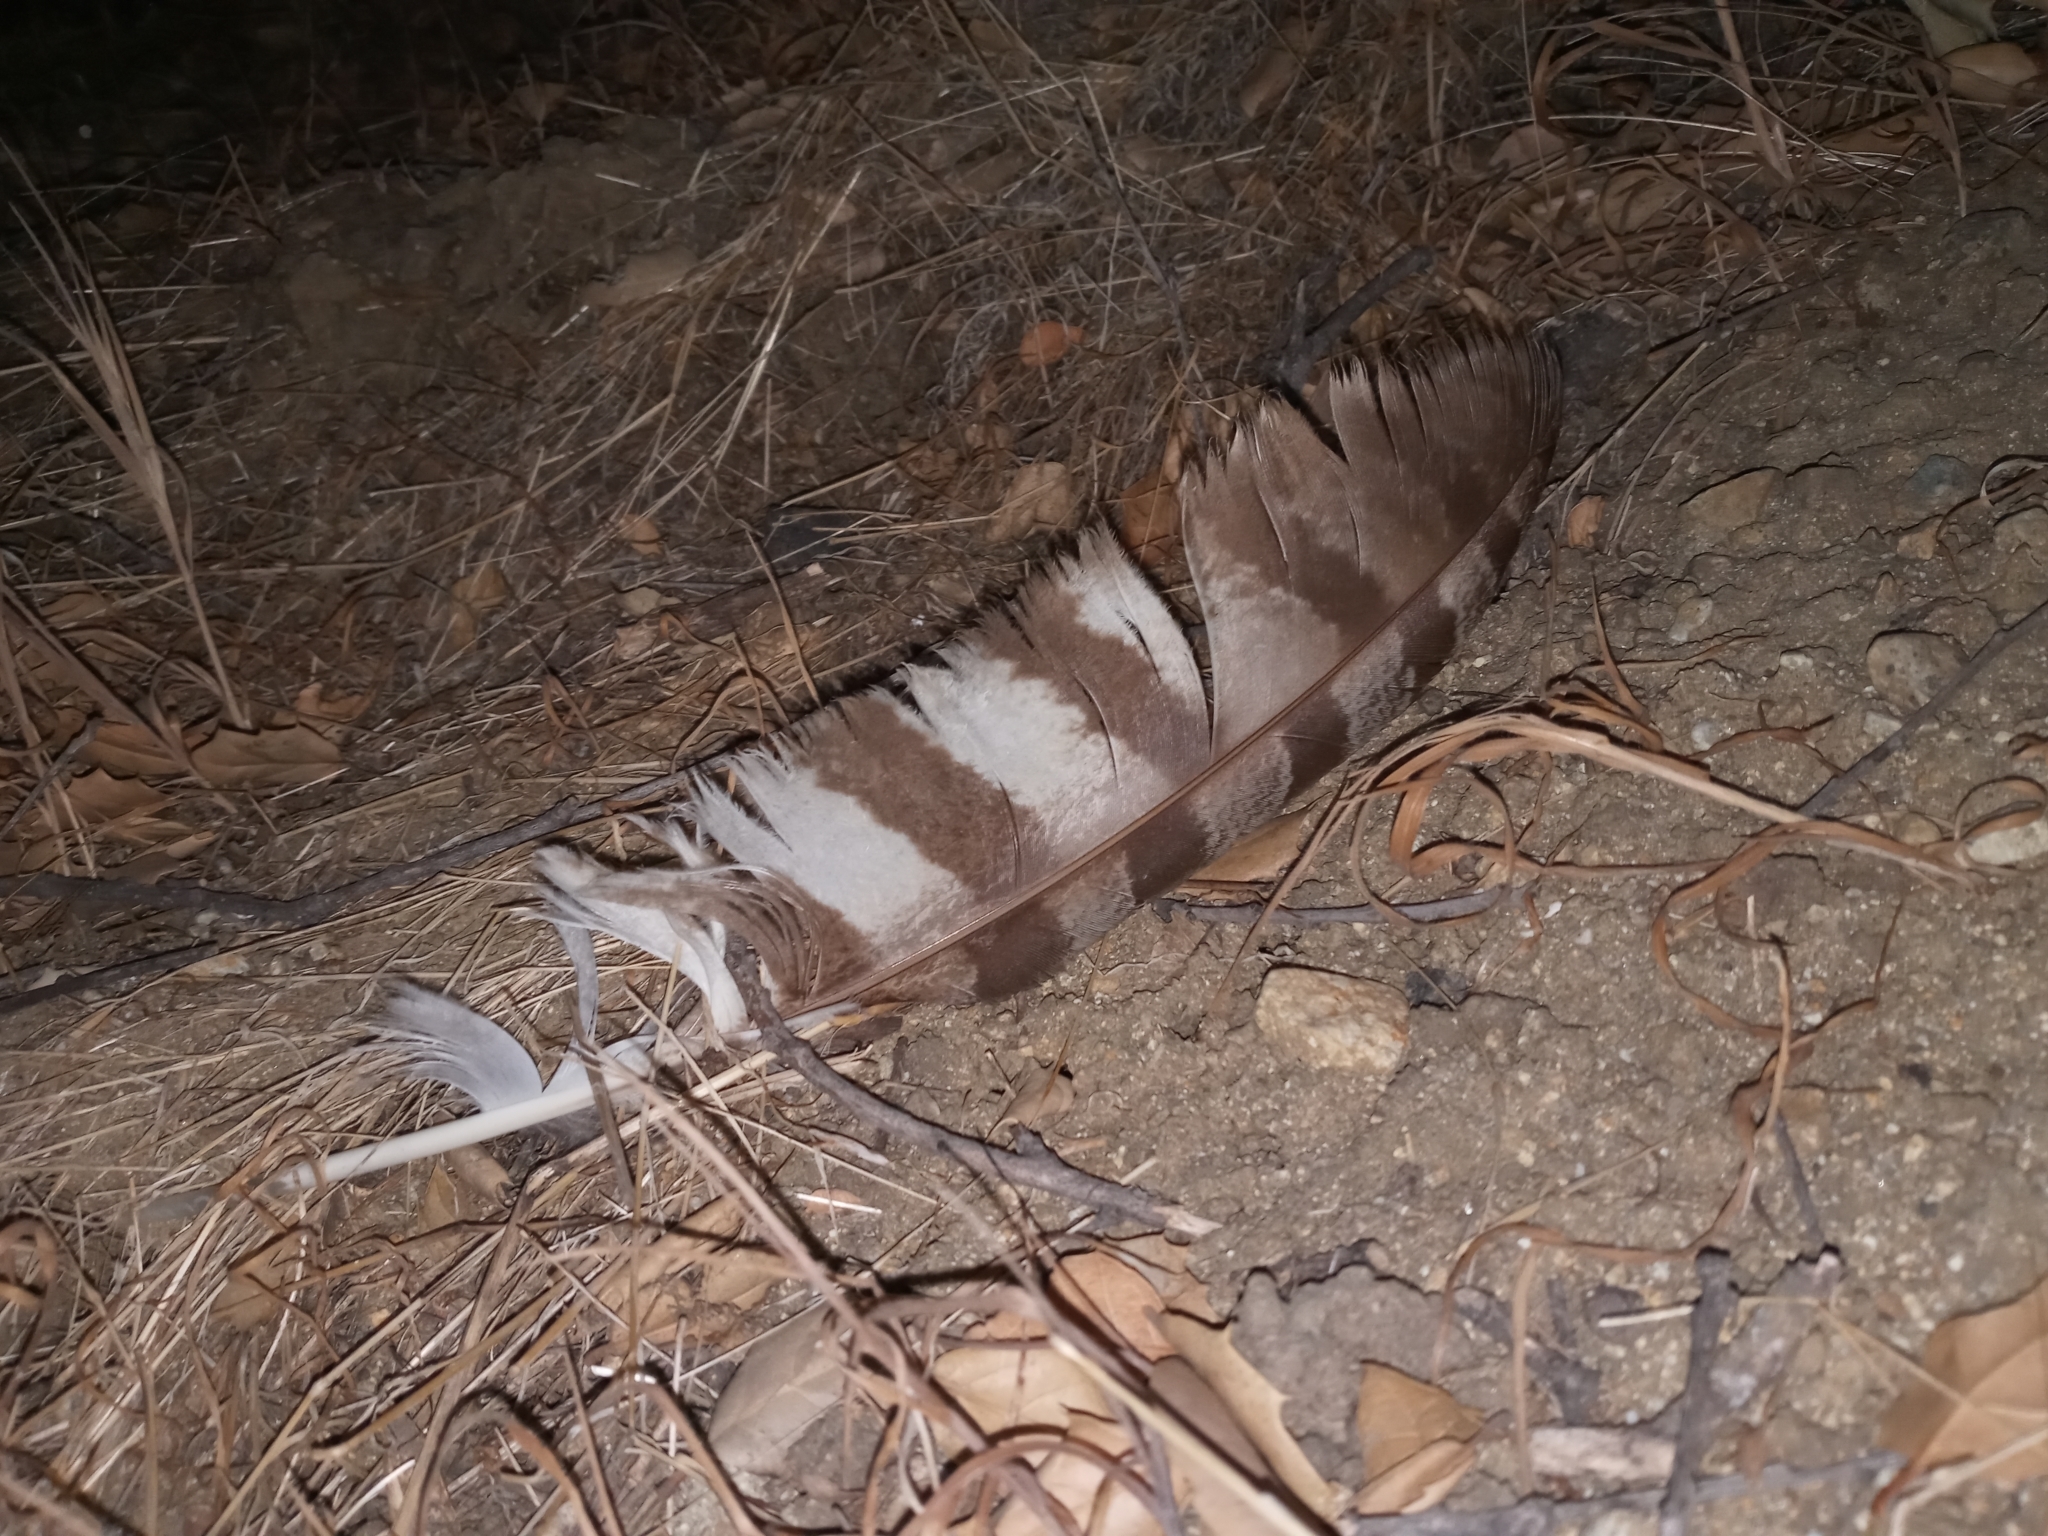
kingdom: Animalia
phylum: Chordata
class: Aves
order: Strigiformes
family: Strigidae
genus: Bubo
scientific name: Bubo virginianus
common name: Great horned owl
